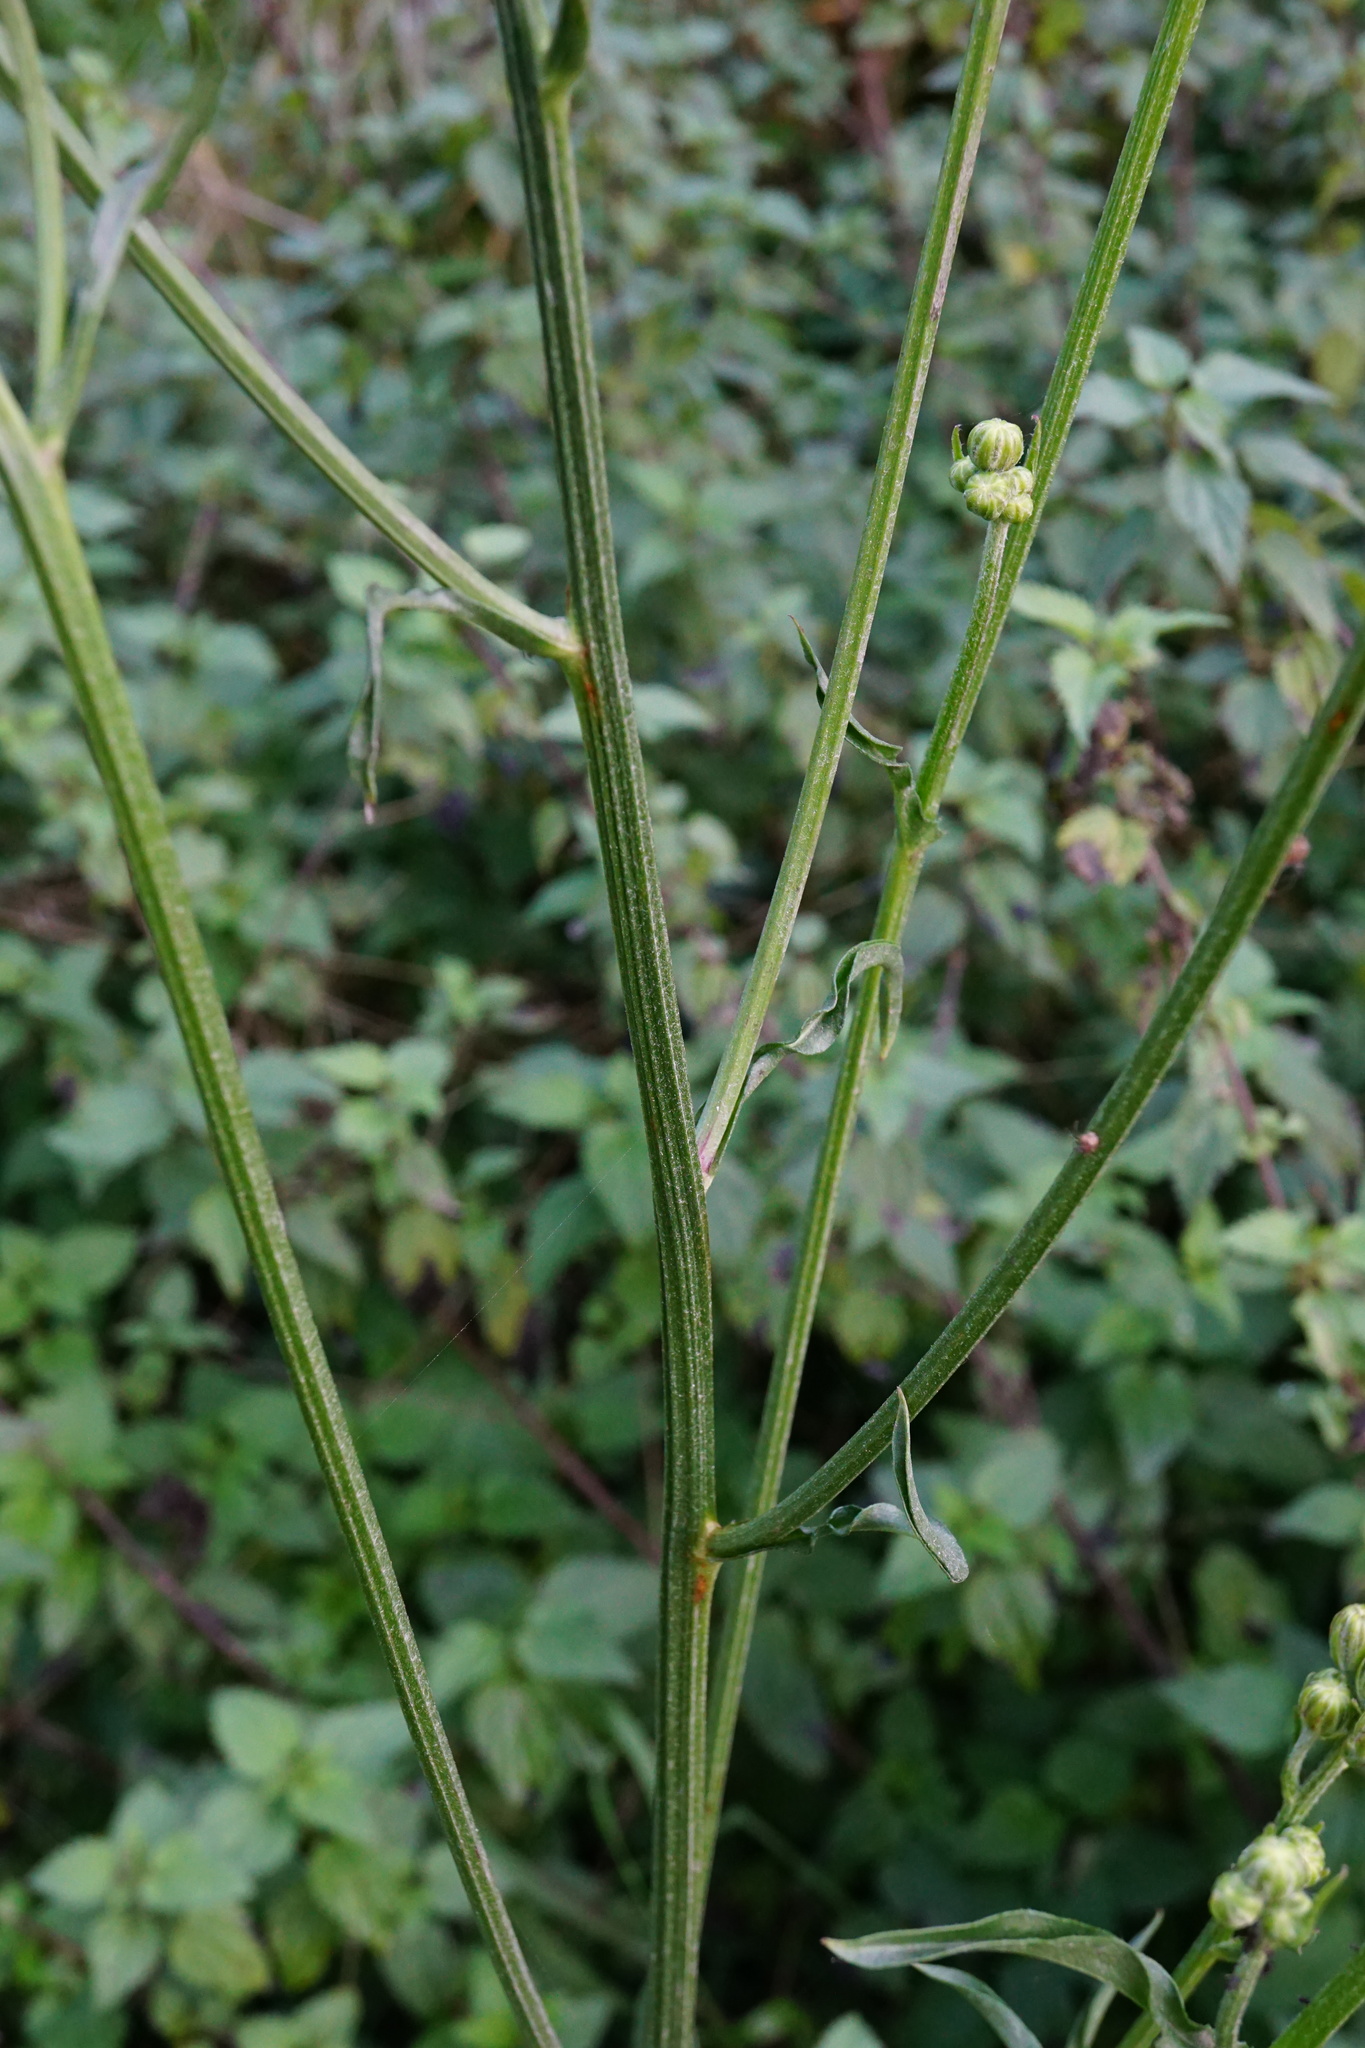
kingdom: Plantae
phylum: Tracheophyta
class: Magnoliopsida
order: Asterales
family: Asteraceae
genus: Crepis
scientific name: Crepis biennis
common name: Rough hawk's-beard
